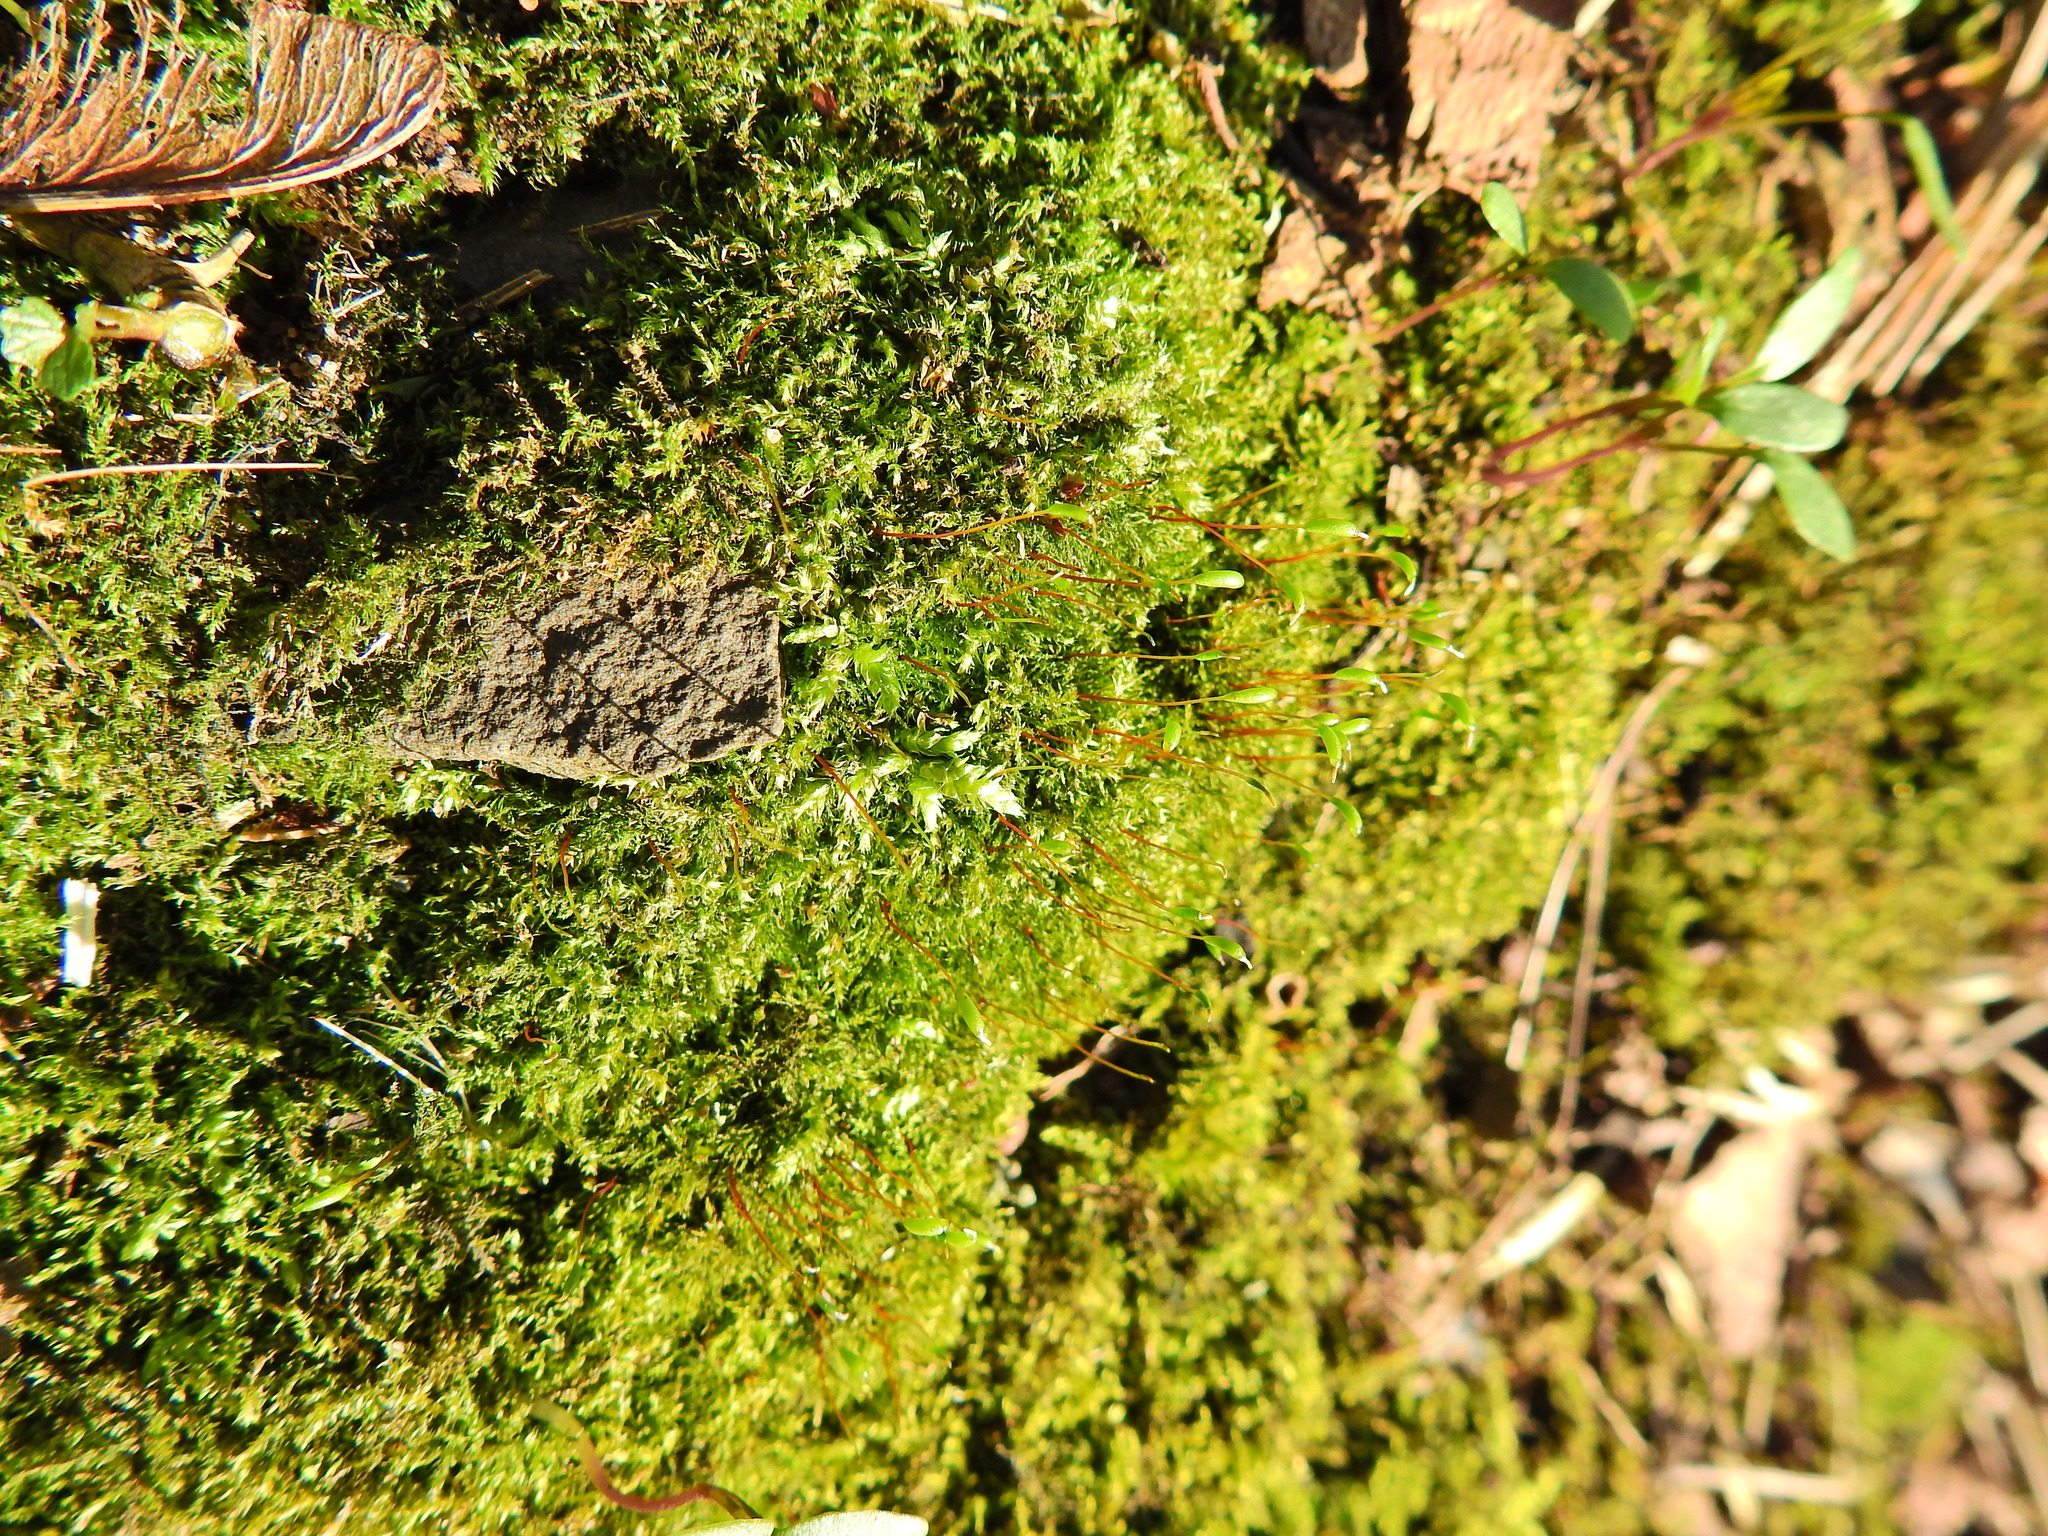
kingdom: Plantae
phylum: Bryophyta
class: Bryopsida
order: Hypnales
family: Amblystegiaceae
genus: Amblystegium
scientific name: Amblystegium serpens
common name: Jurkatzka's feather moss
